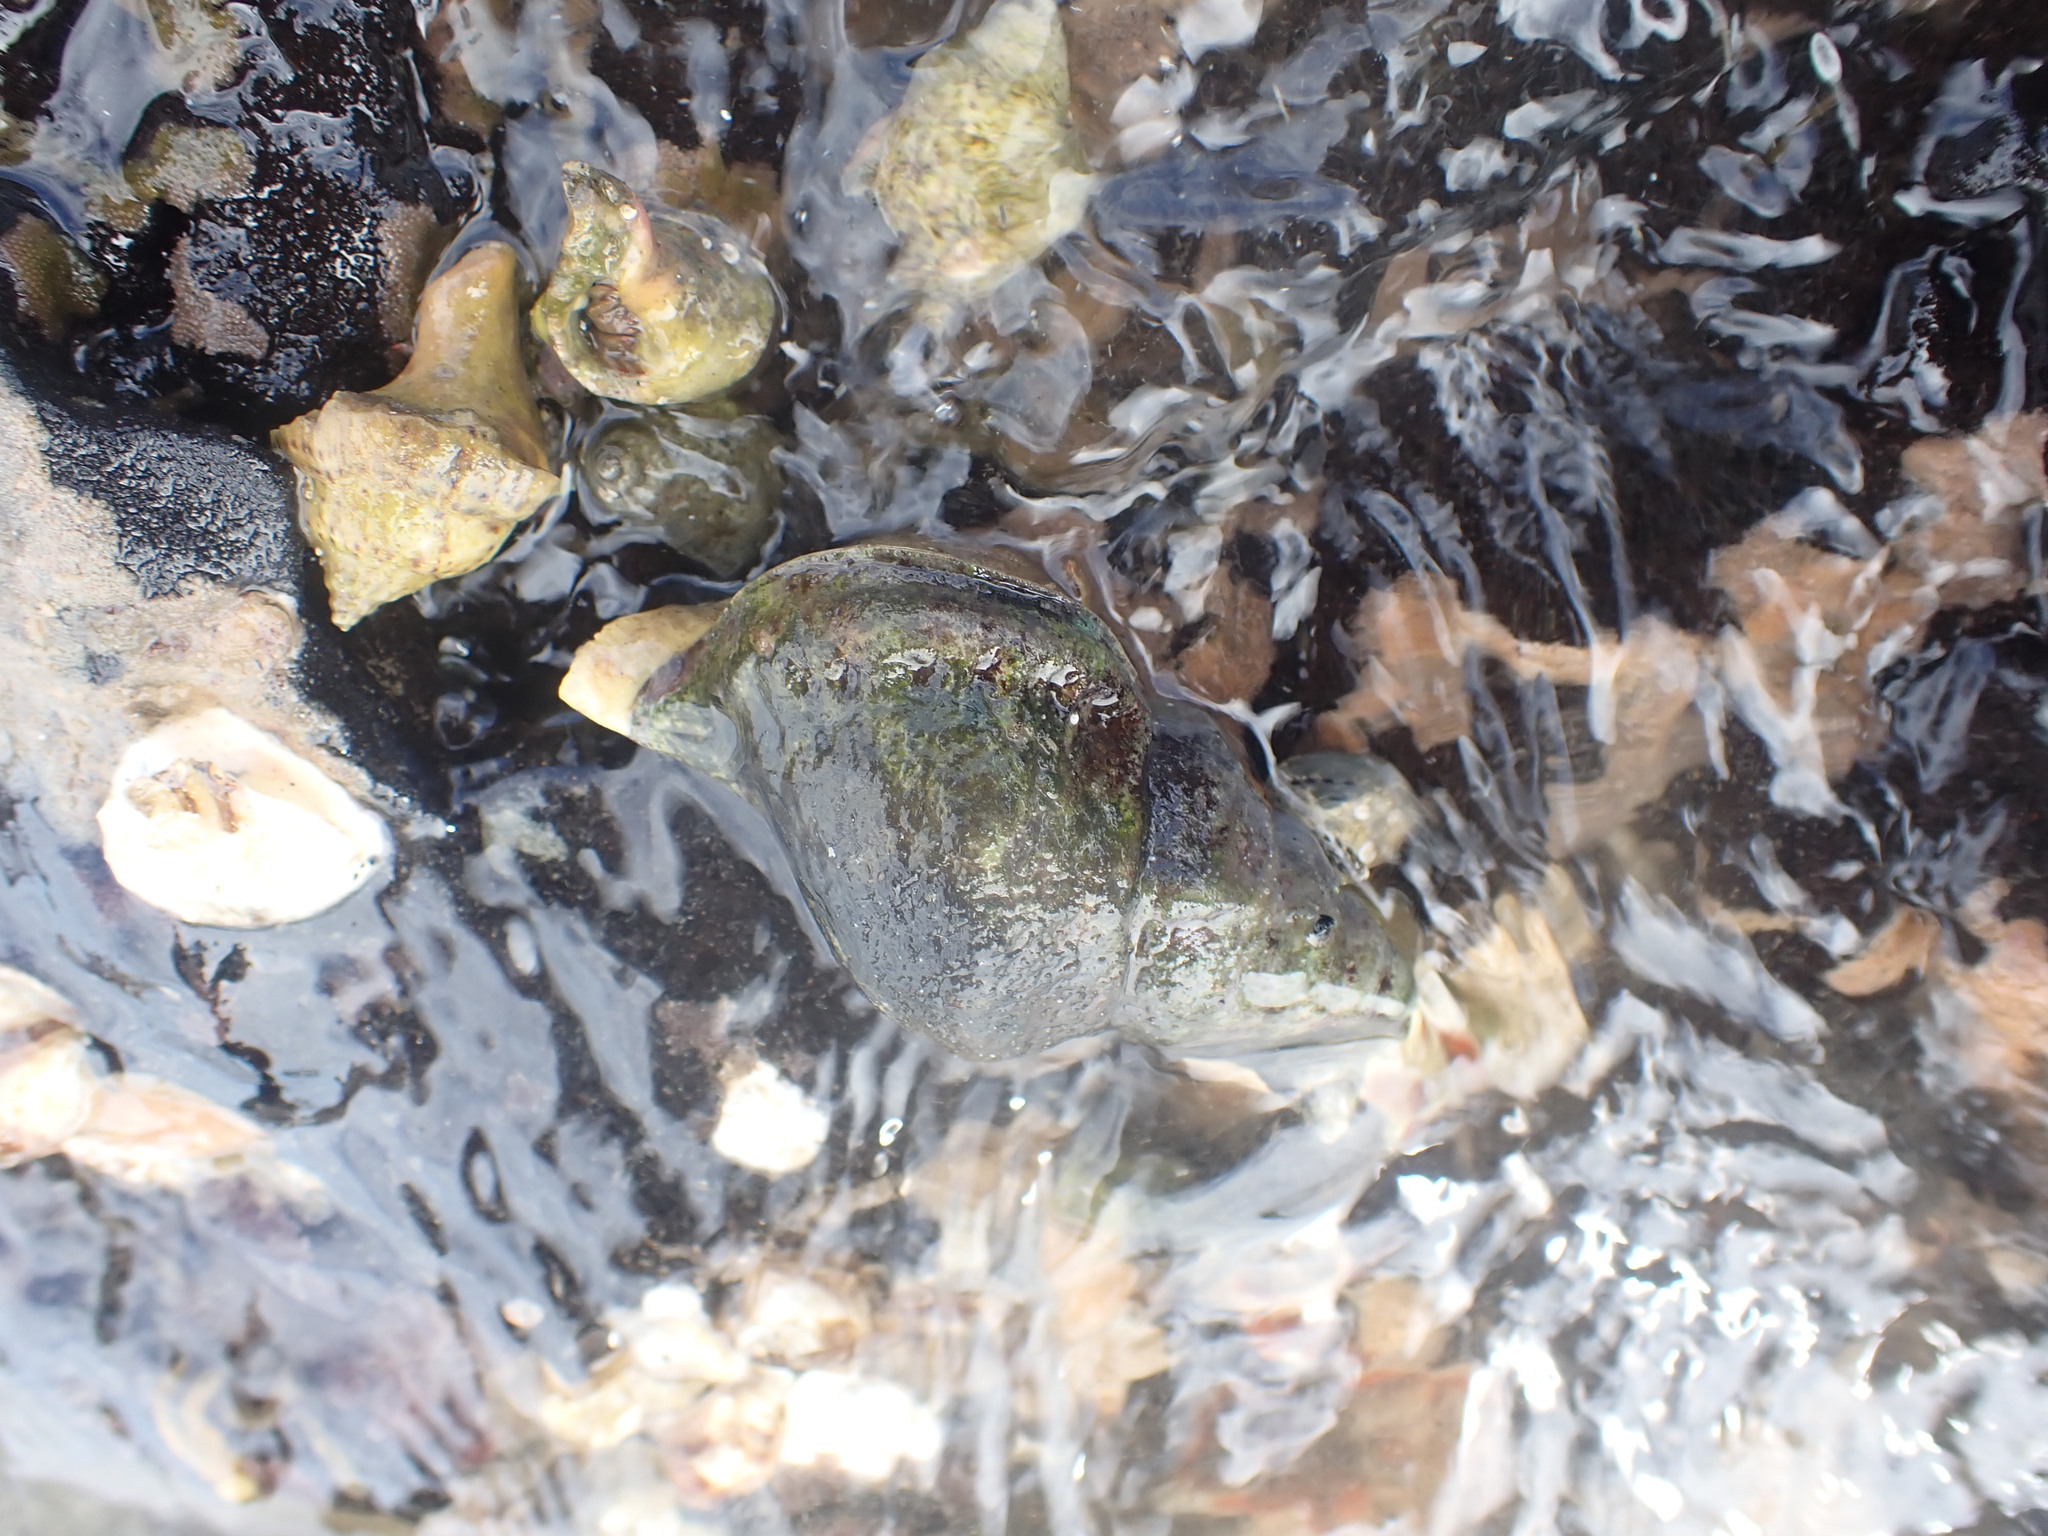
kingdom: Animalia
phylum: Mollusca
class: Gastropoda
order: Littorinimorpha
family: Ranellidae
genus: Ranella
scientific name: Ranella australasia
